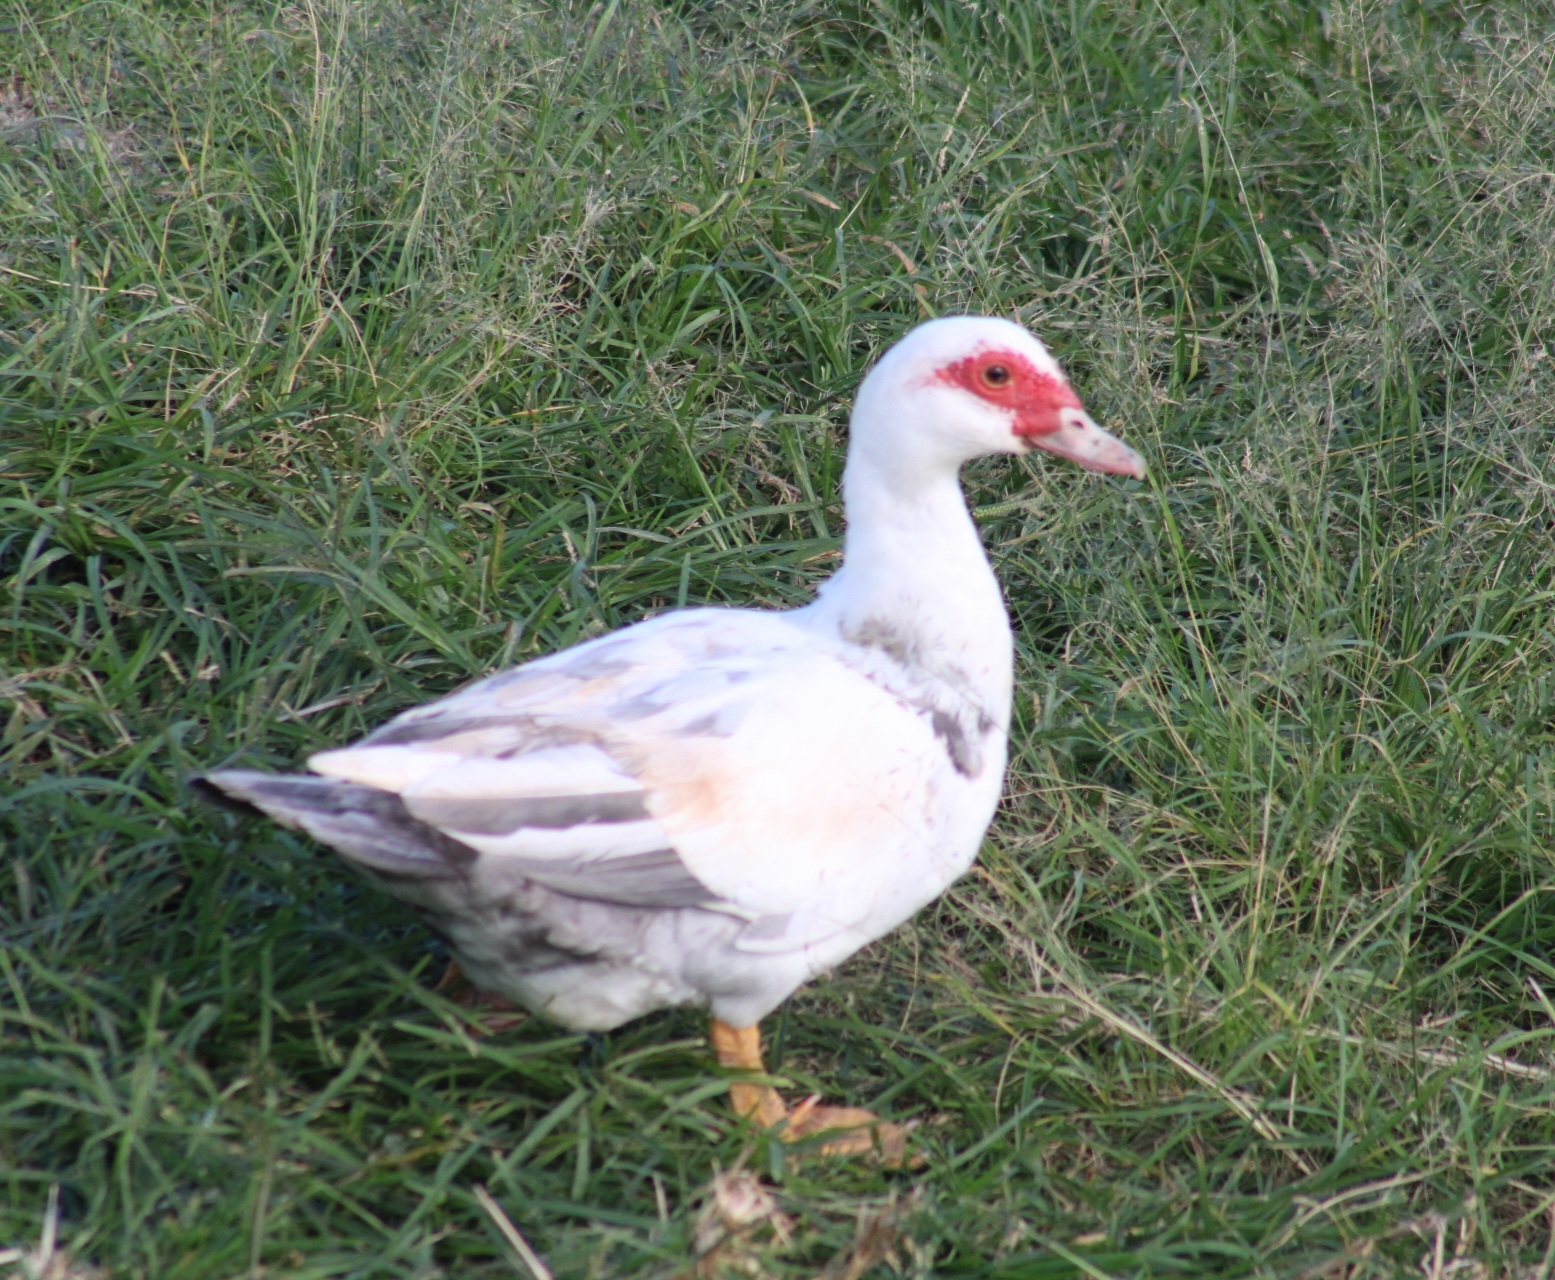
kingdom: Animalia
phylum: Chordata
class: Aves
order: Anseriformes
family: Anatidae
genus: Cairina
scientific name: Cairina moschata
